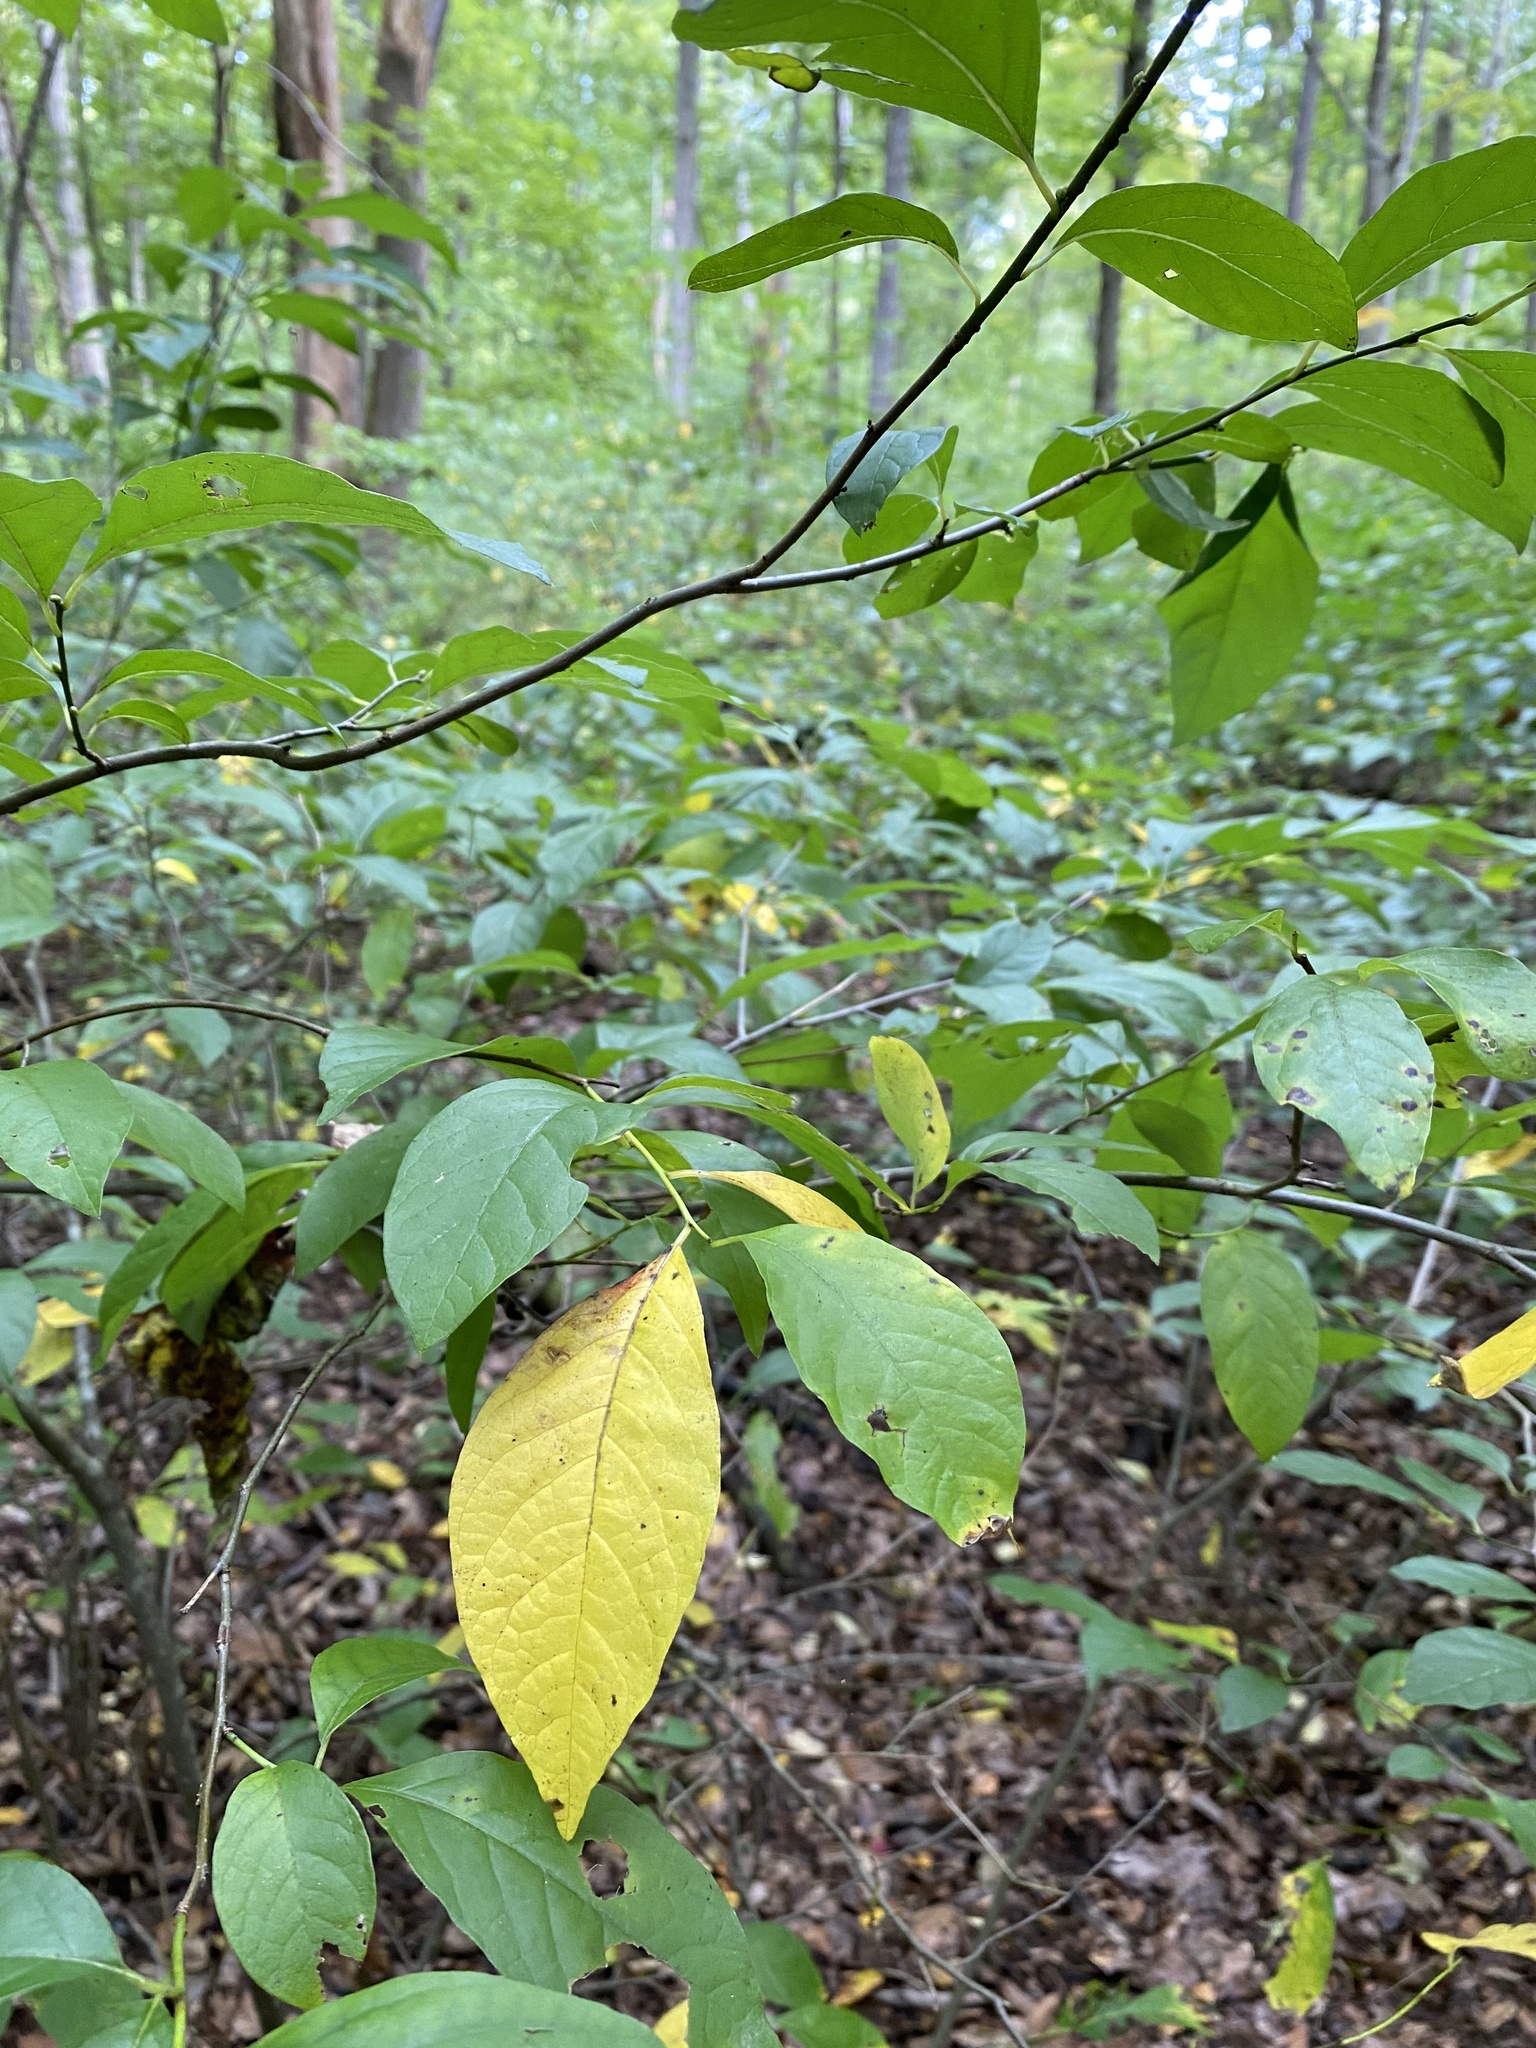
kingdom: Plantae
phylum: Tracheophyta
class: Magnoliopsida
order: Laurales
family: Lauraceae
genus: Lindera
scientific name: Lindera benzoin
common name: Spicebush
